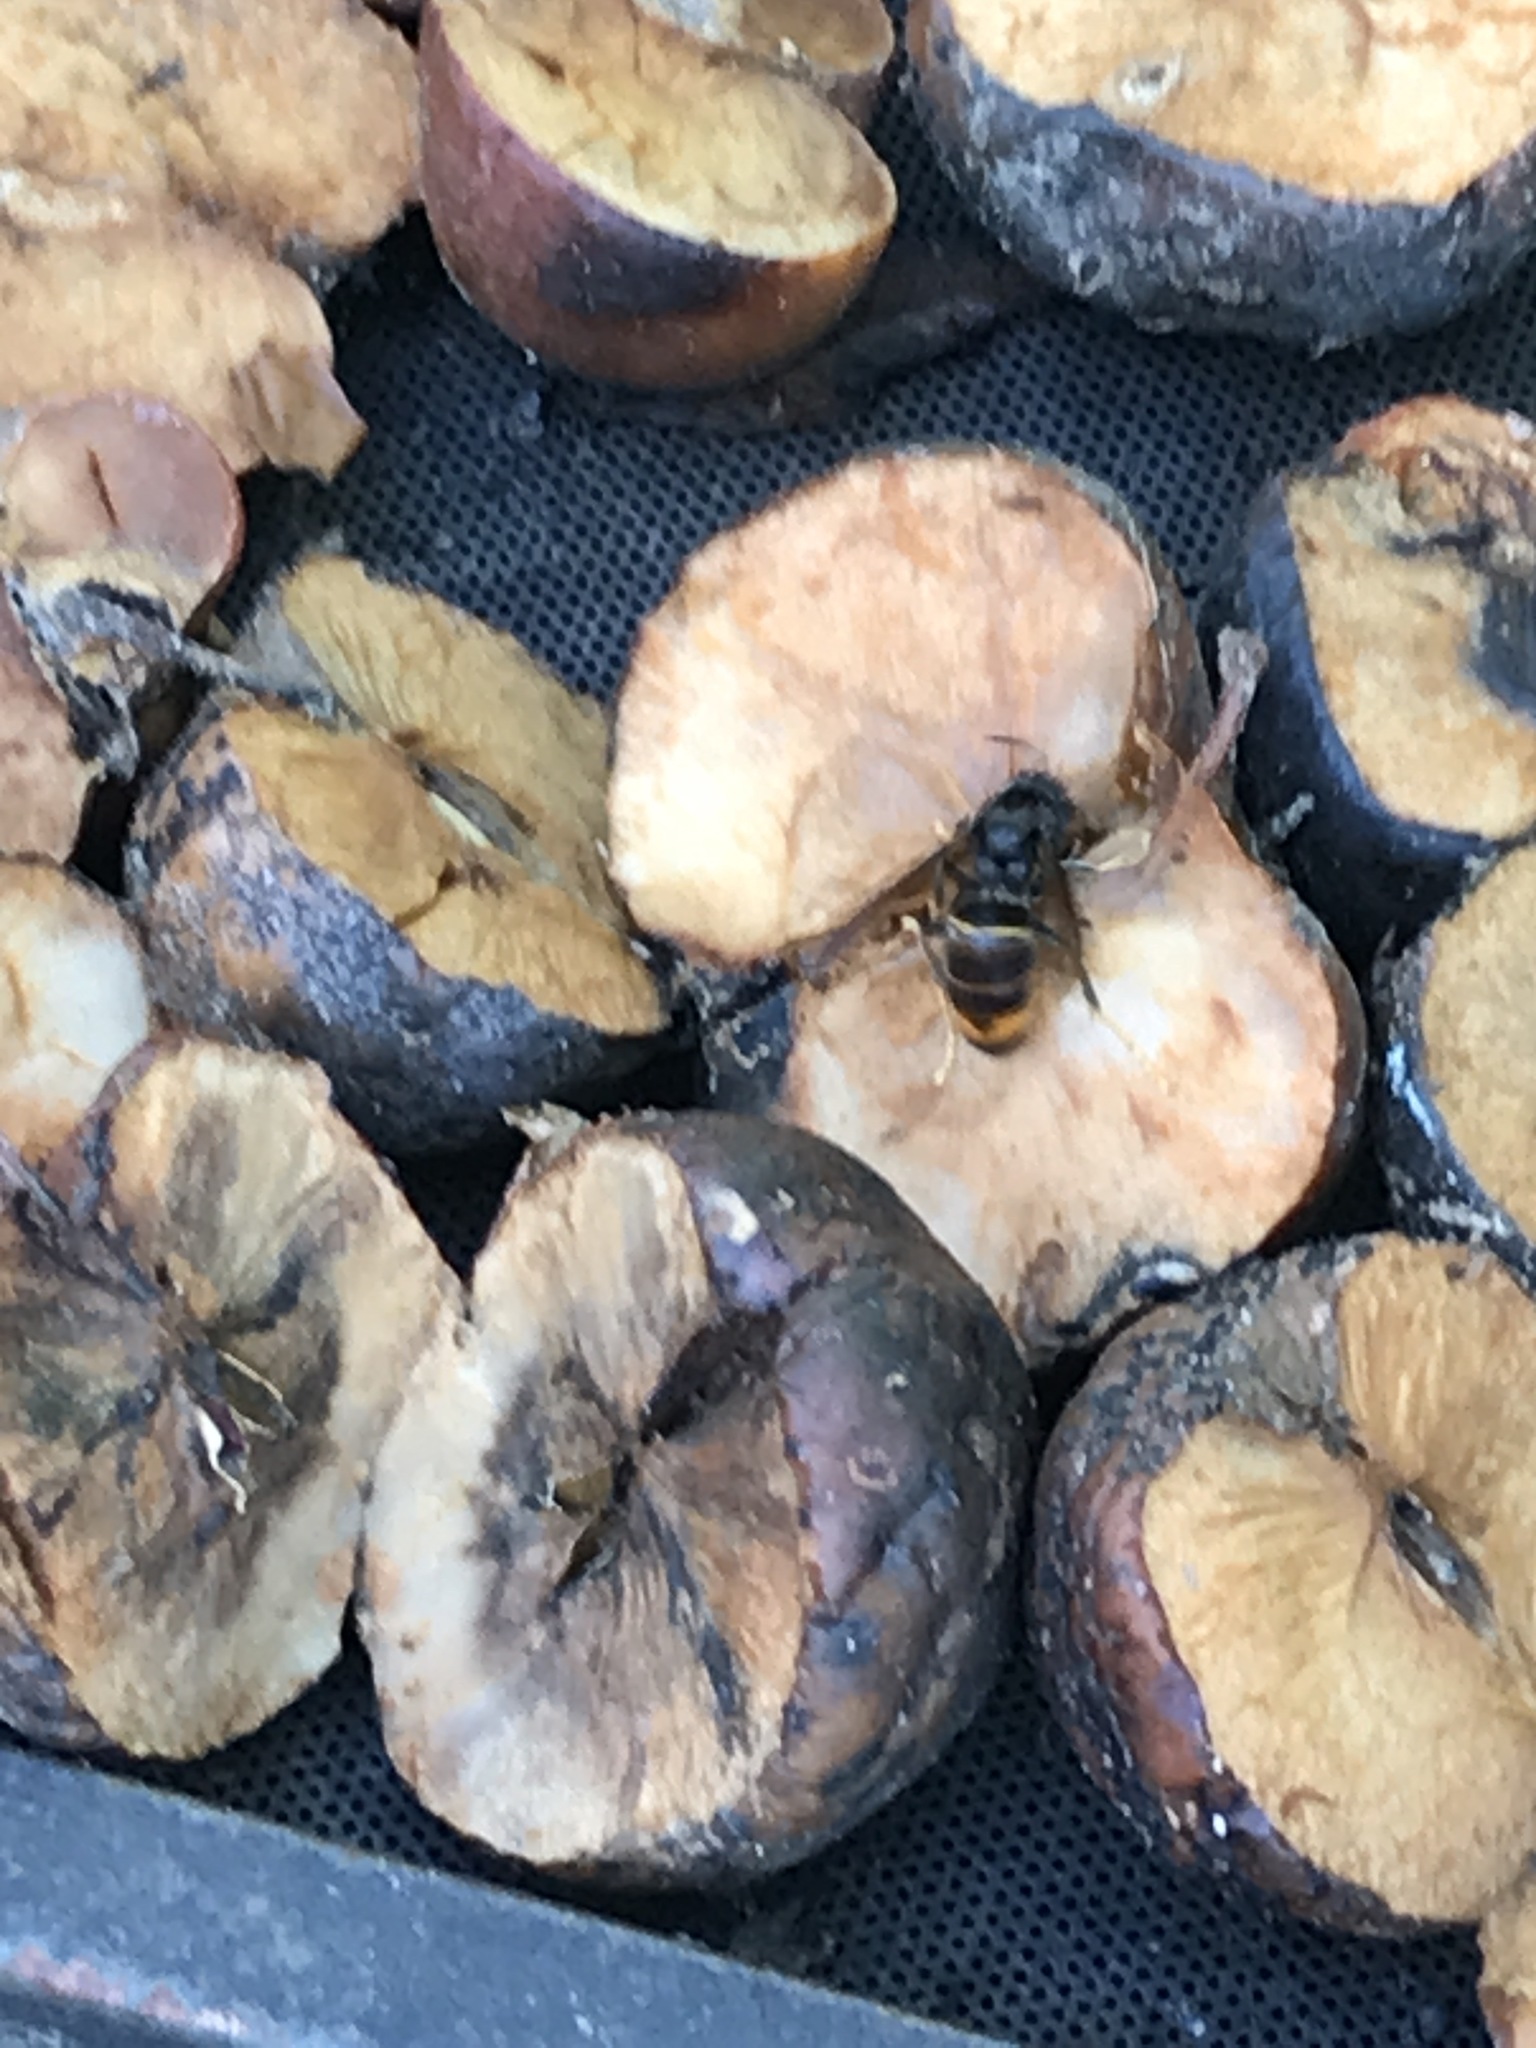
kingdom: Animalia
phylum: Arthropoda
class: Insecta
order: Hymenoptera
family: Vespidae
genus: Vespa
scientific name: Vespa velutina
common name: Asian hornet
